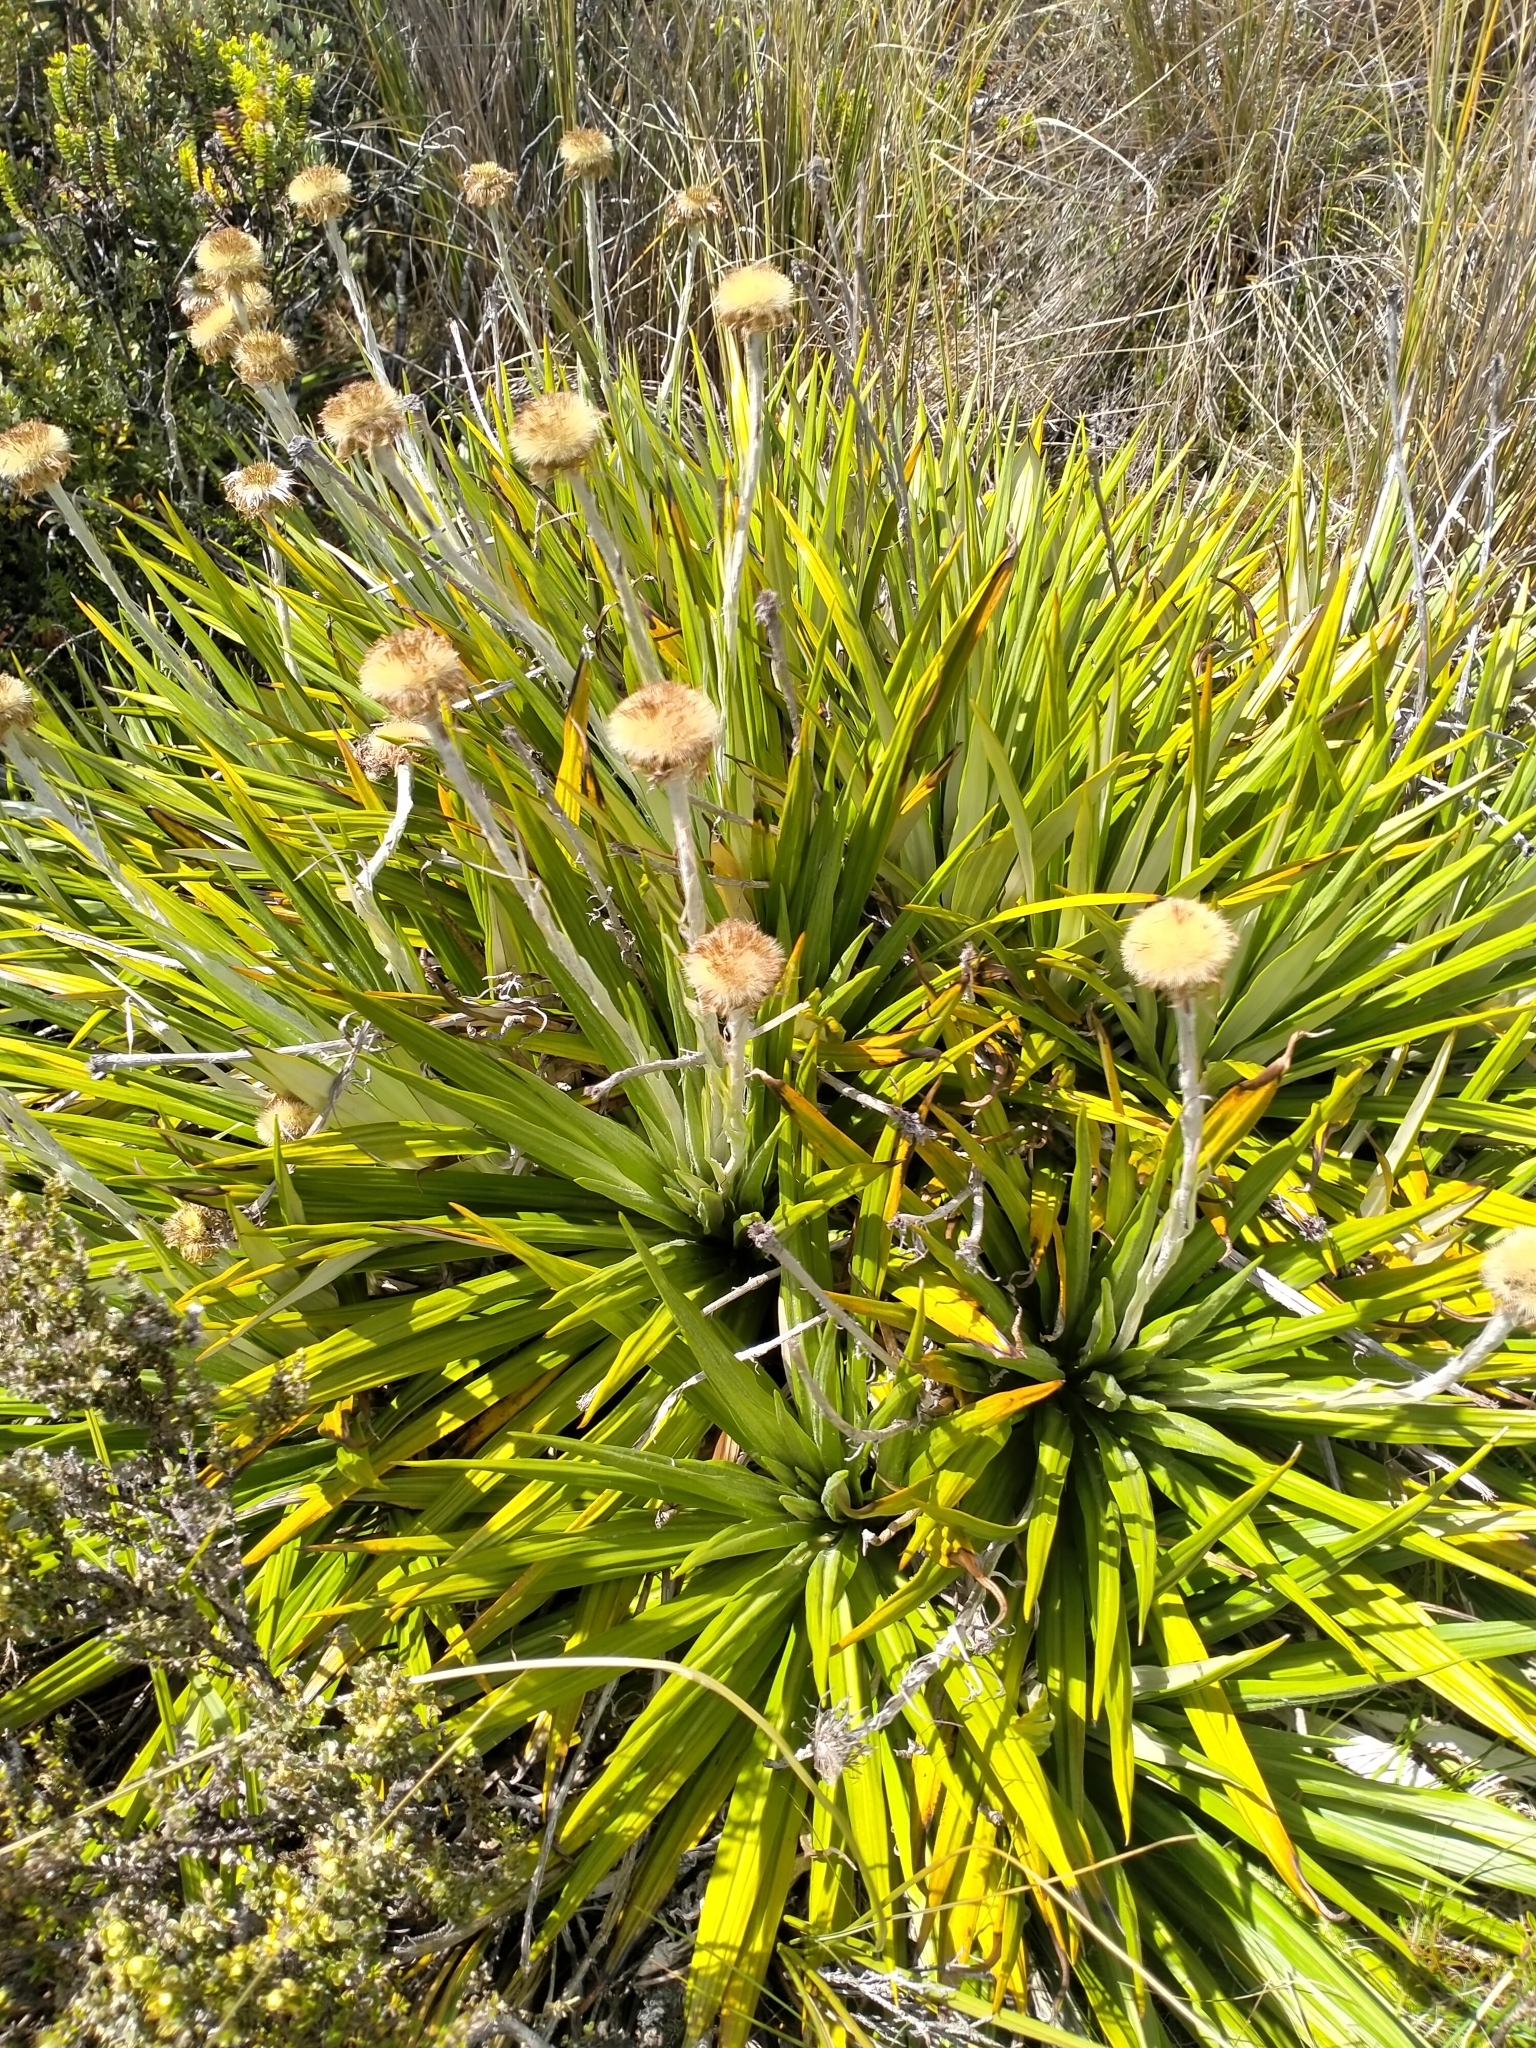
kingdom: Plantae
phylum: Tracheophyta
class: Magnoliopsida
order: Asterales
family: Asteraceae
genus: Celmisia
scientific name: Celmisia petriei
